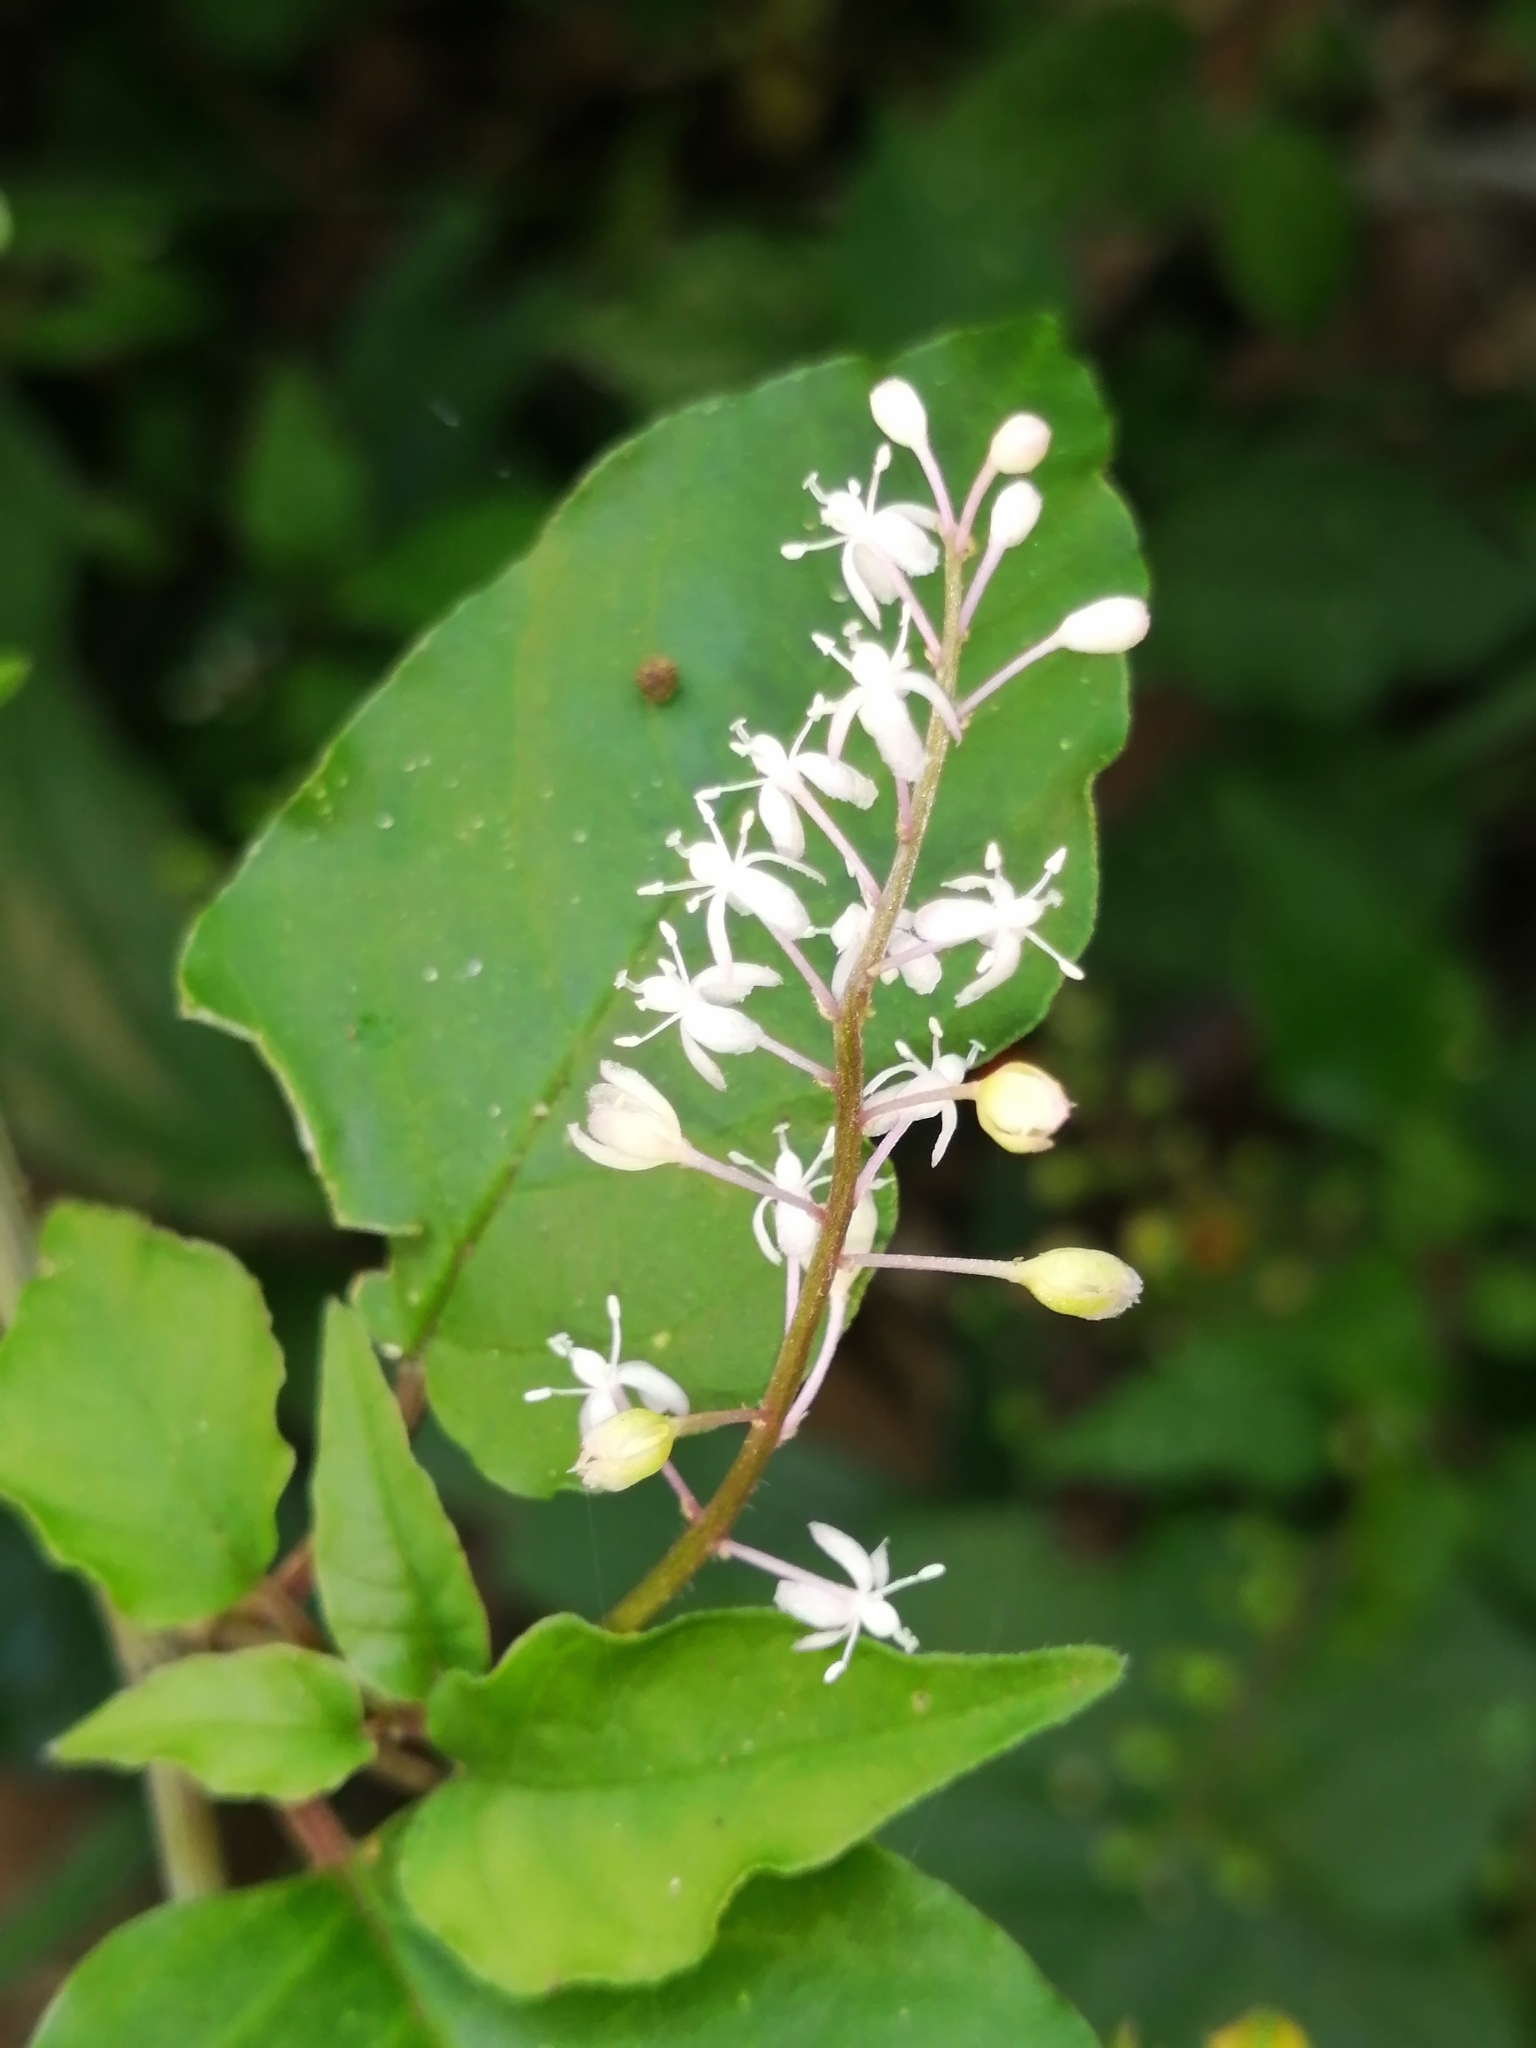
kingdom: Plantae
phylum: Tracheophyta
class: Magnoliopsida
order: Caryophyllales
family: Phytolaccaceae
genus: Rivina
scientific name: Rivina humilis
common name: Rougeplant
